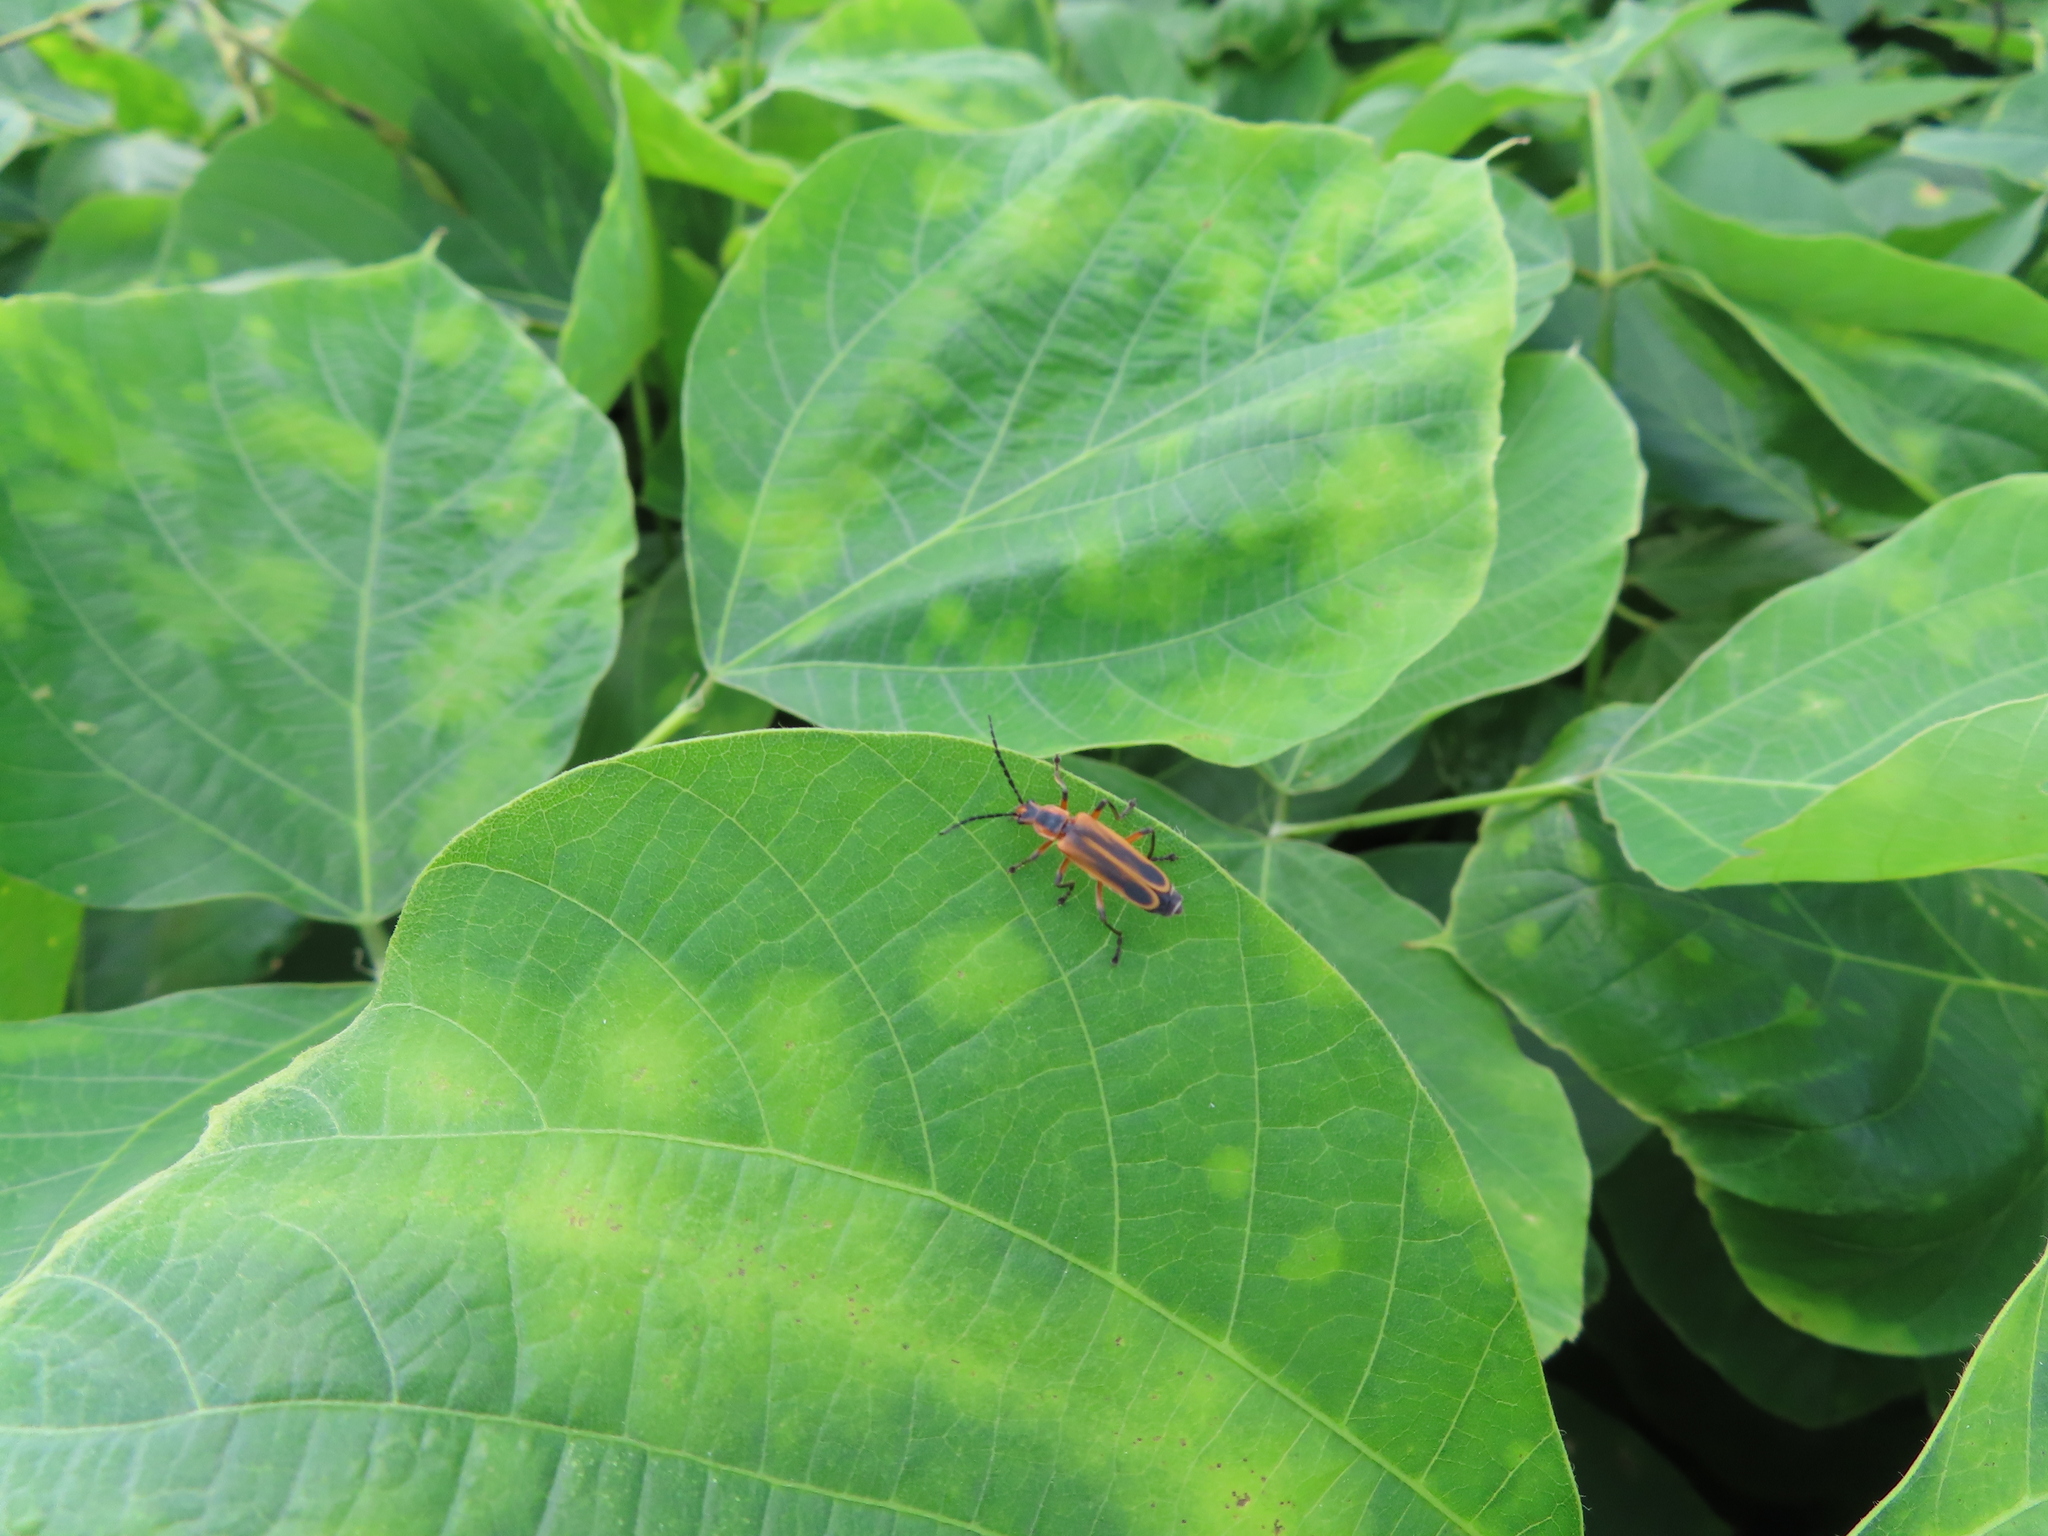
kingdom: Animalia
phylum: Arthropoda
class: Insecta
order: Coleoptera
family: Cantharidae
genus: Chauliognathus
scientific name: Chauliognathus marginatus
